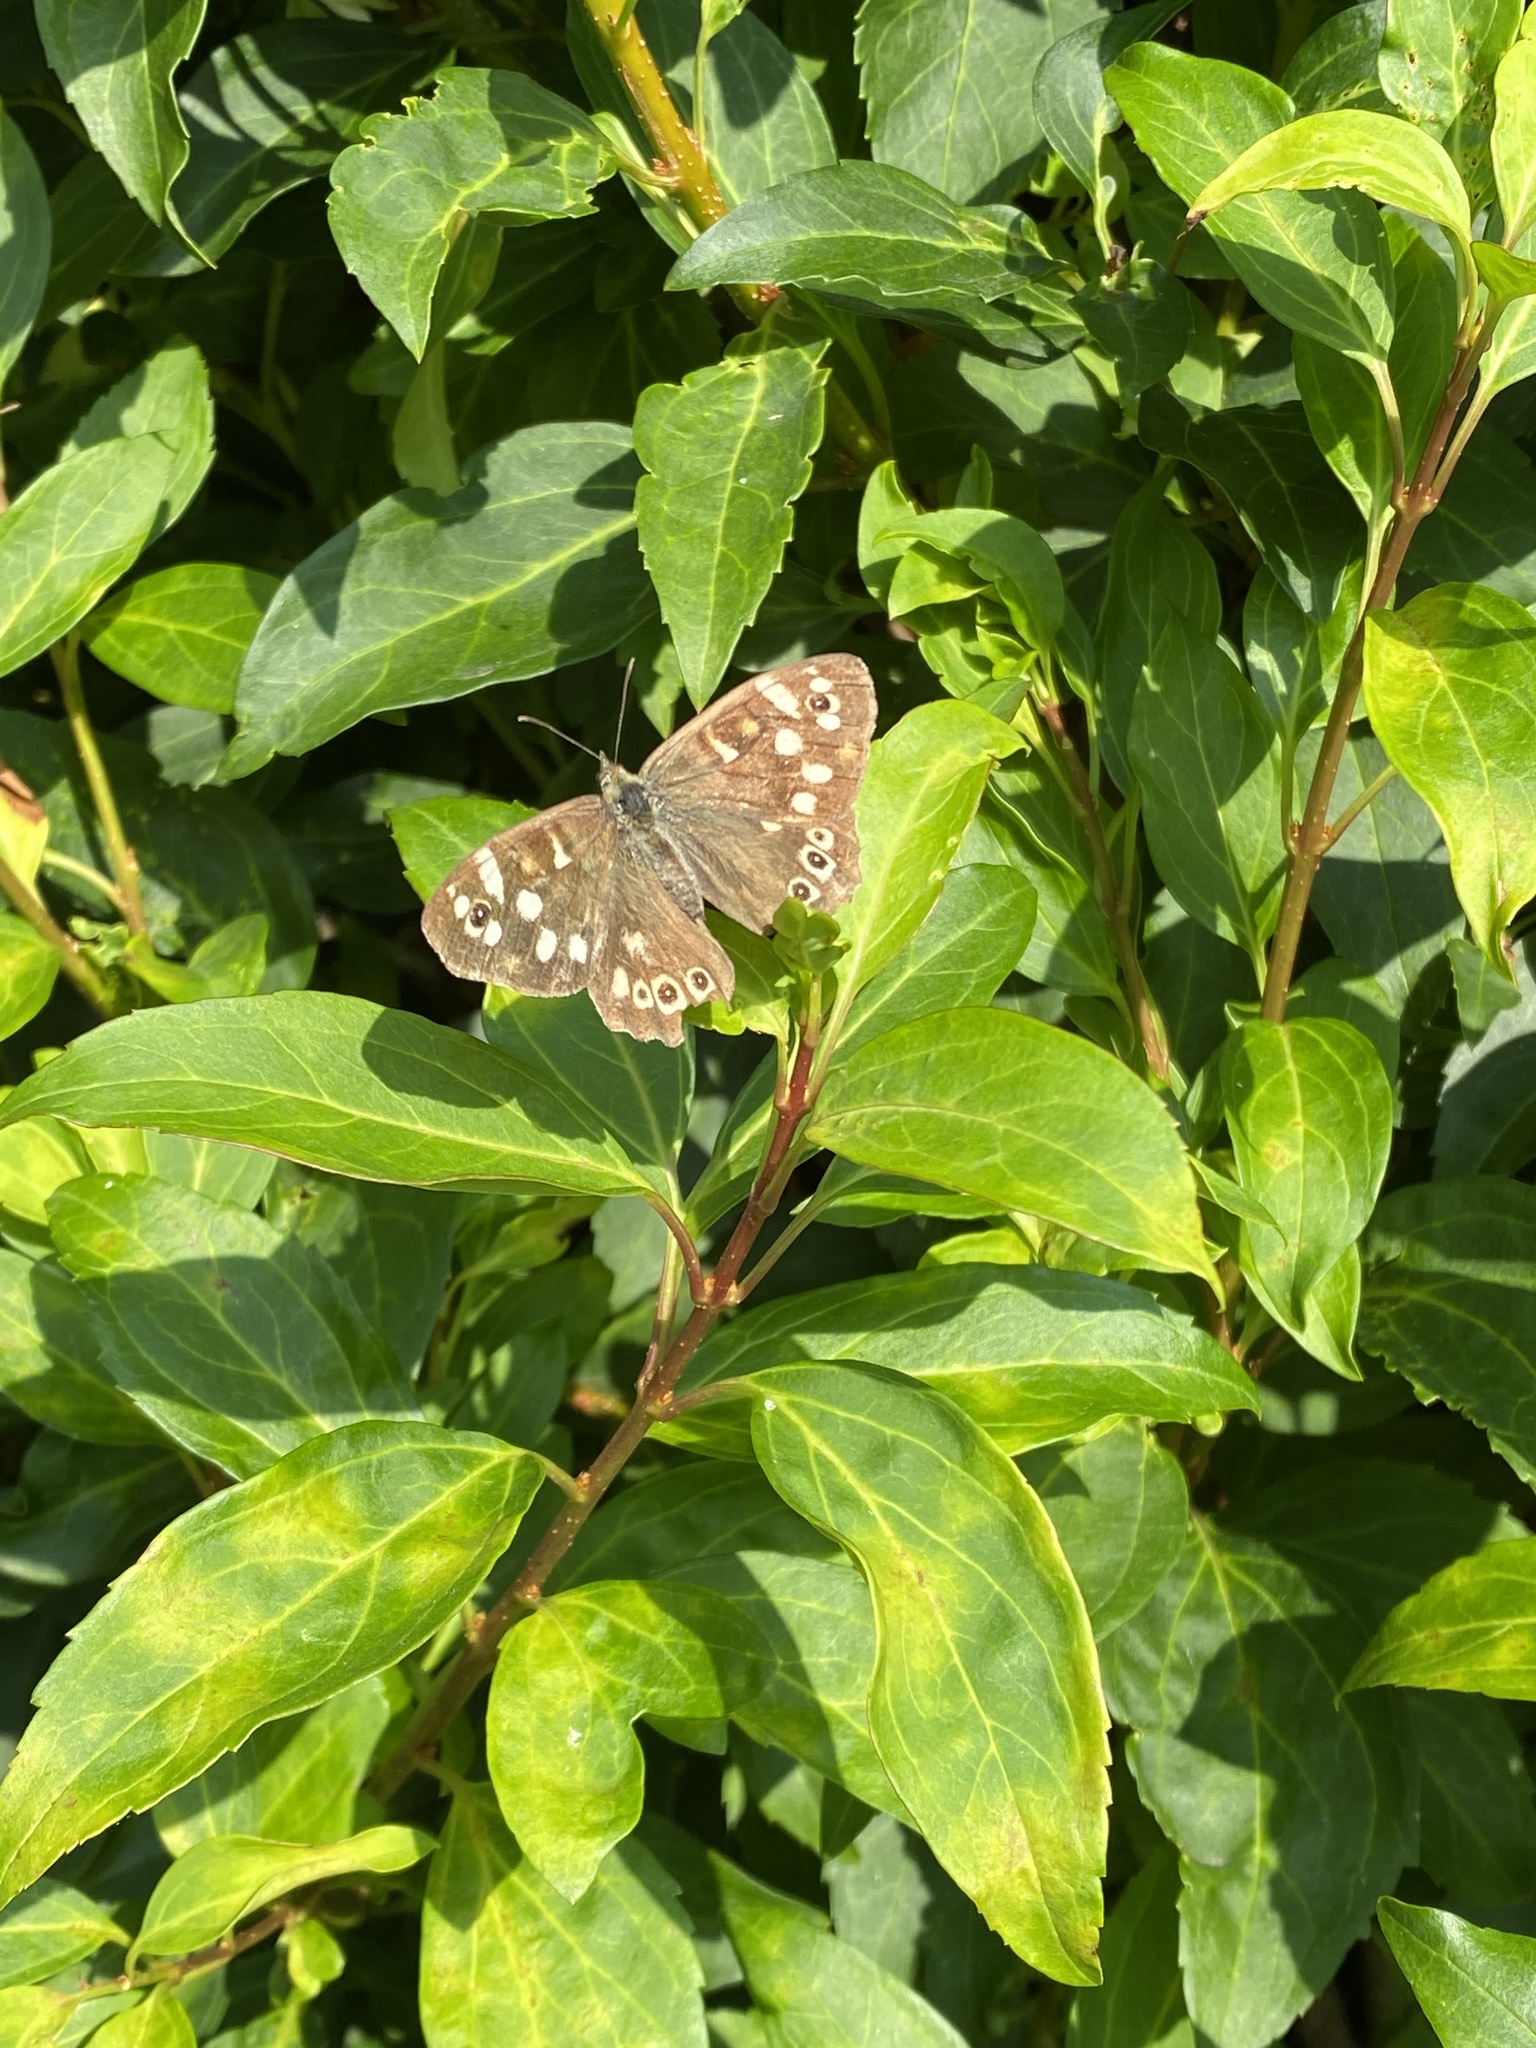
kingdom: Animalia
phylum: Arthropoda
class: Insecta
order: Lepidoptera
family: Nymphalidae
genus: Pararge
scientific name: Pararge aegeria
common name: Speckled wood
